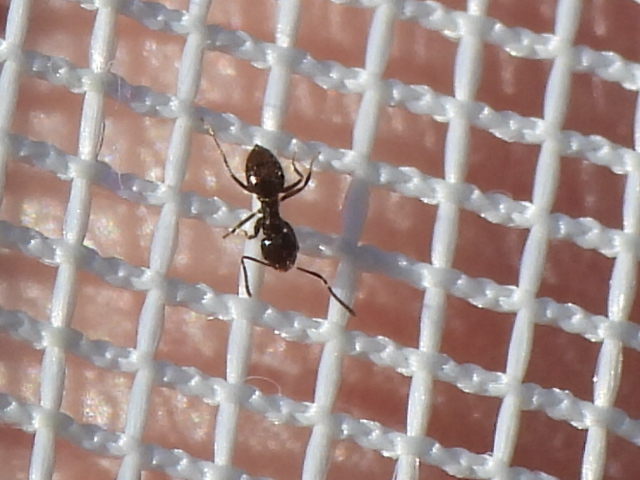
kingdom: Animalia
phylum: Arthropoda
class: Insecta
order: Hymenoptera
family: Formicidae
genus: Brachymyrmex
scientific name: Brachymyrmex patagonicus
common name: Dark rover ant
